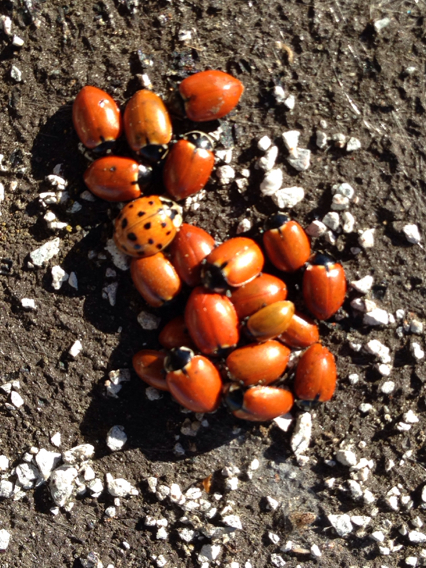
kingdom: Animalia
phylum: Arthropoda
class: Insecta
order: Coleoptera
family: Coccinellidae
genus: Hippodamia
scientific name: Hippodamia quinquesignata
